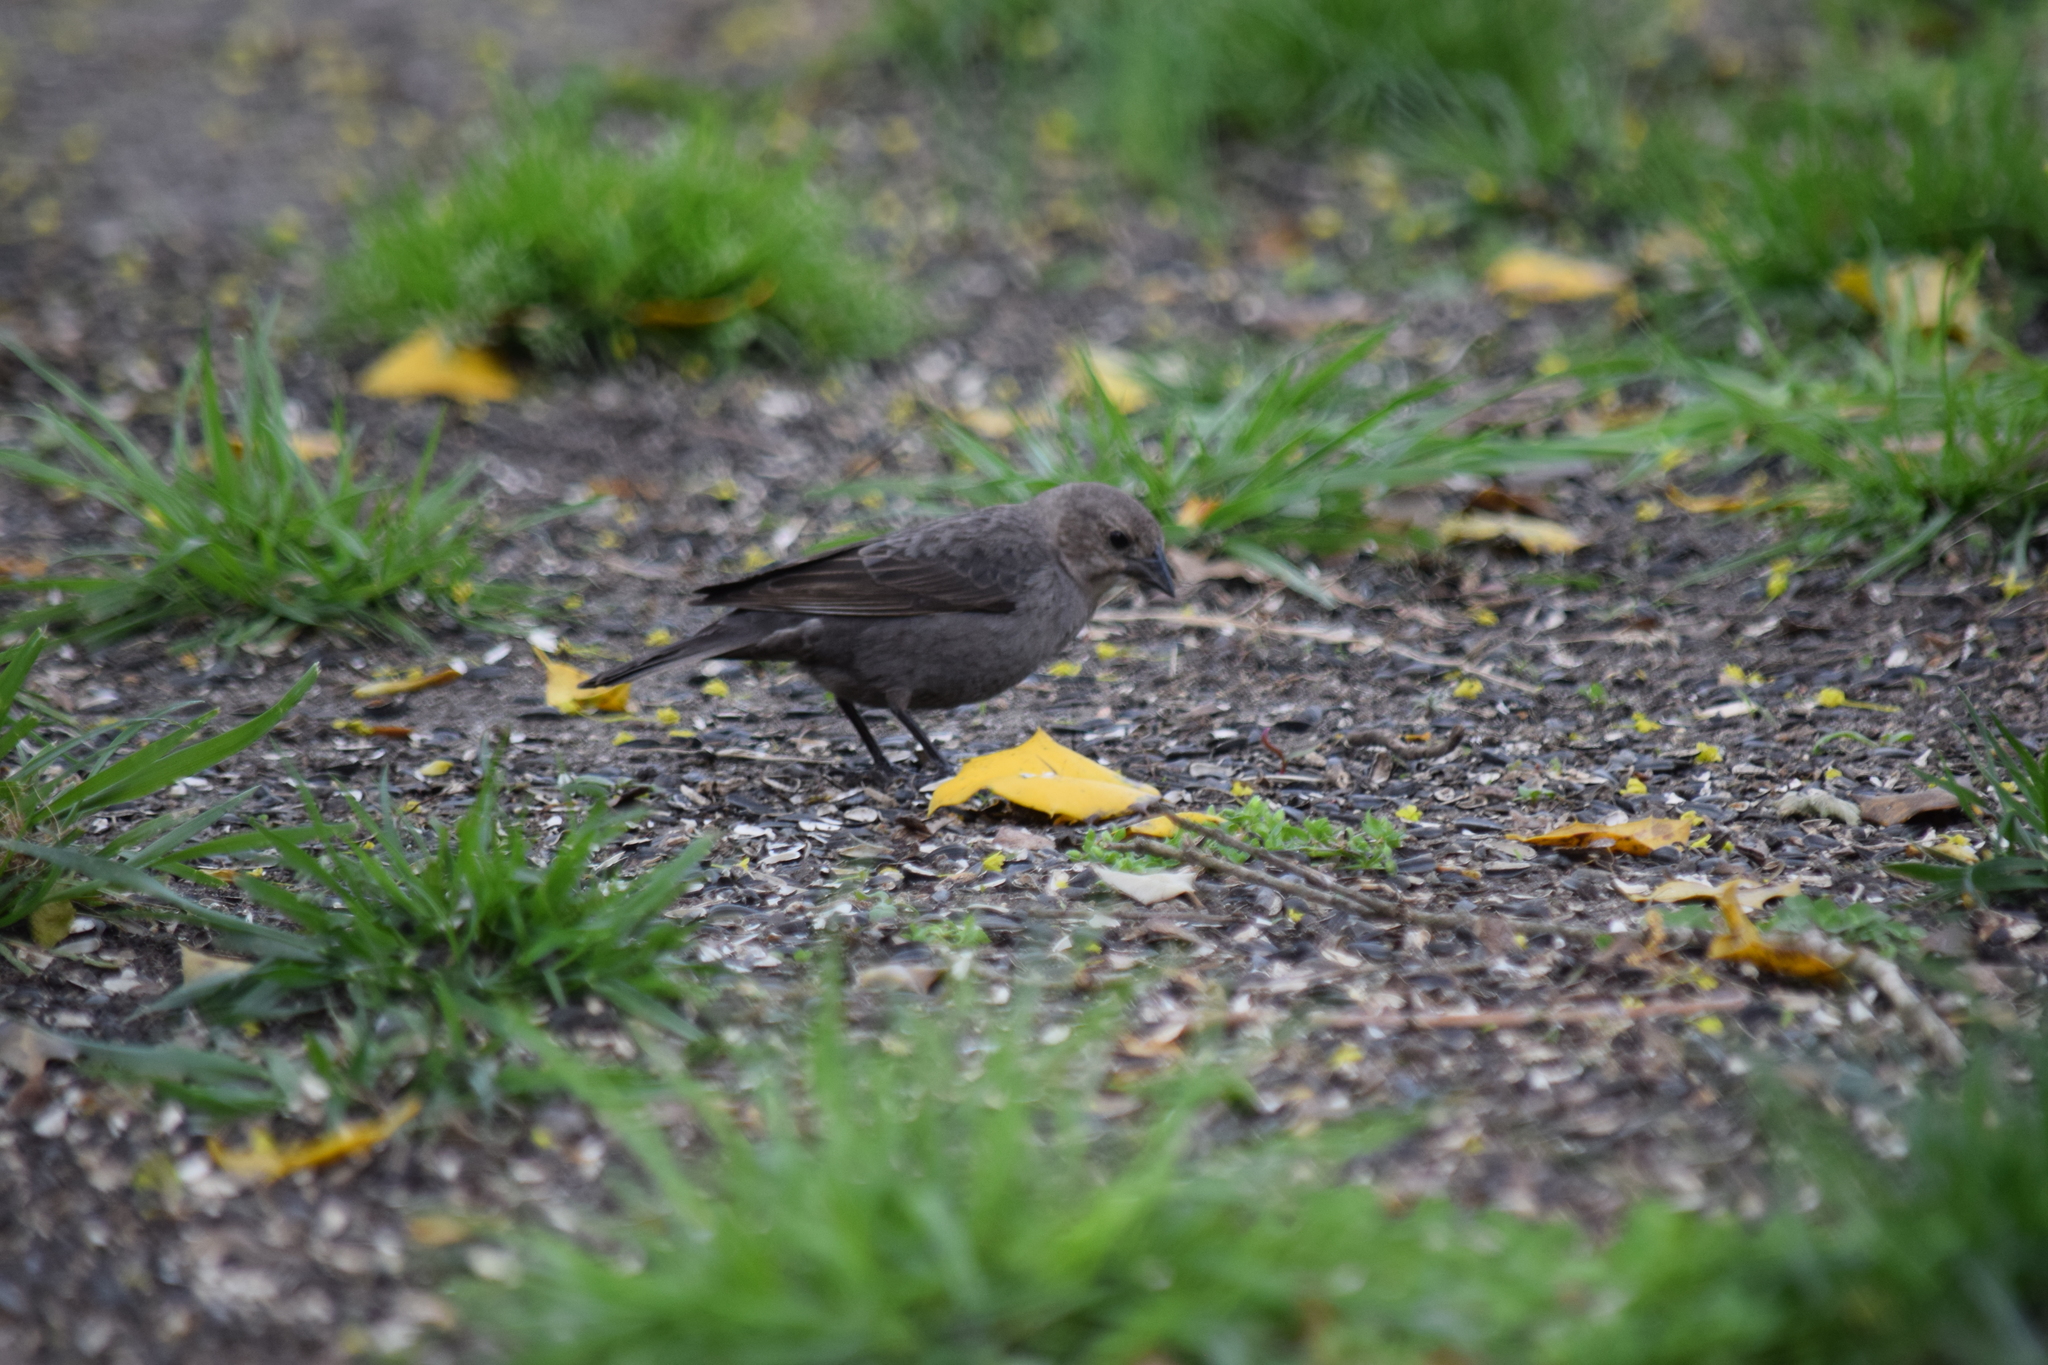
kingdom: Animalia
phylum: Chordata
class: Aves
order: Passeriformes
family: Icteridae
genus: Molothrus
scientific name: Molothrus ater
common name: Brown-headed cowbird
